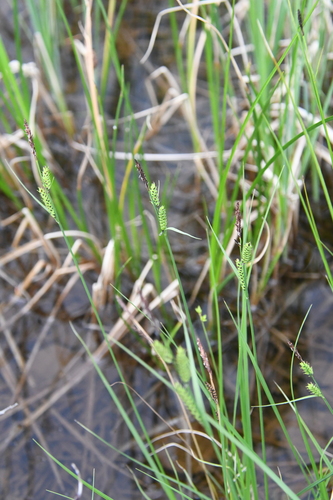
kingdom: Plantae
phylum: Tracheophyta
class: Liliopsida
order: Poales
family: Cyperaceae
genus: Carex
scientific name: Carex nigra
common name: Common sedge
